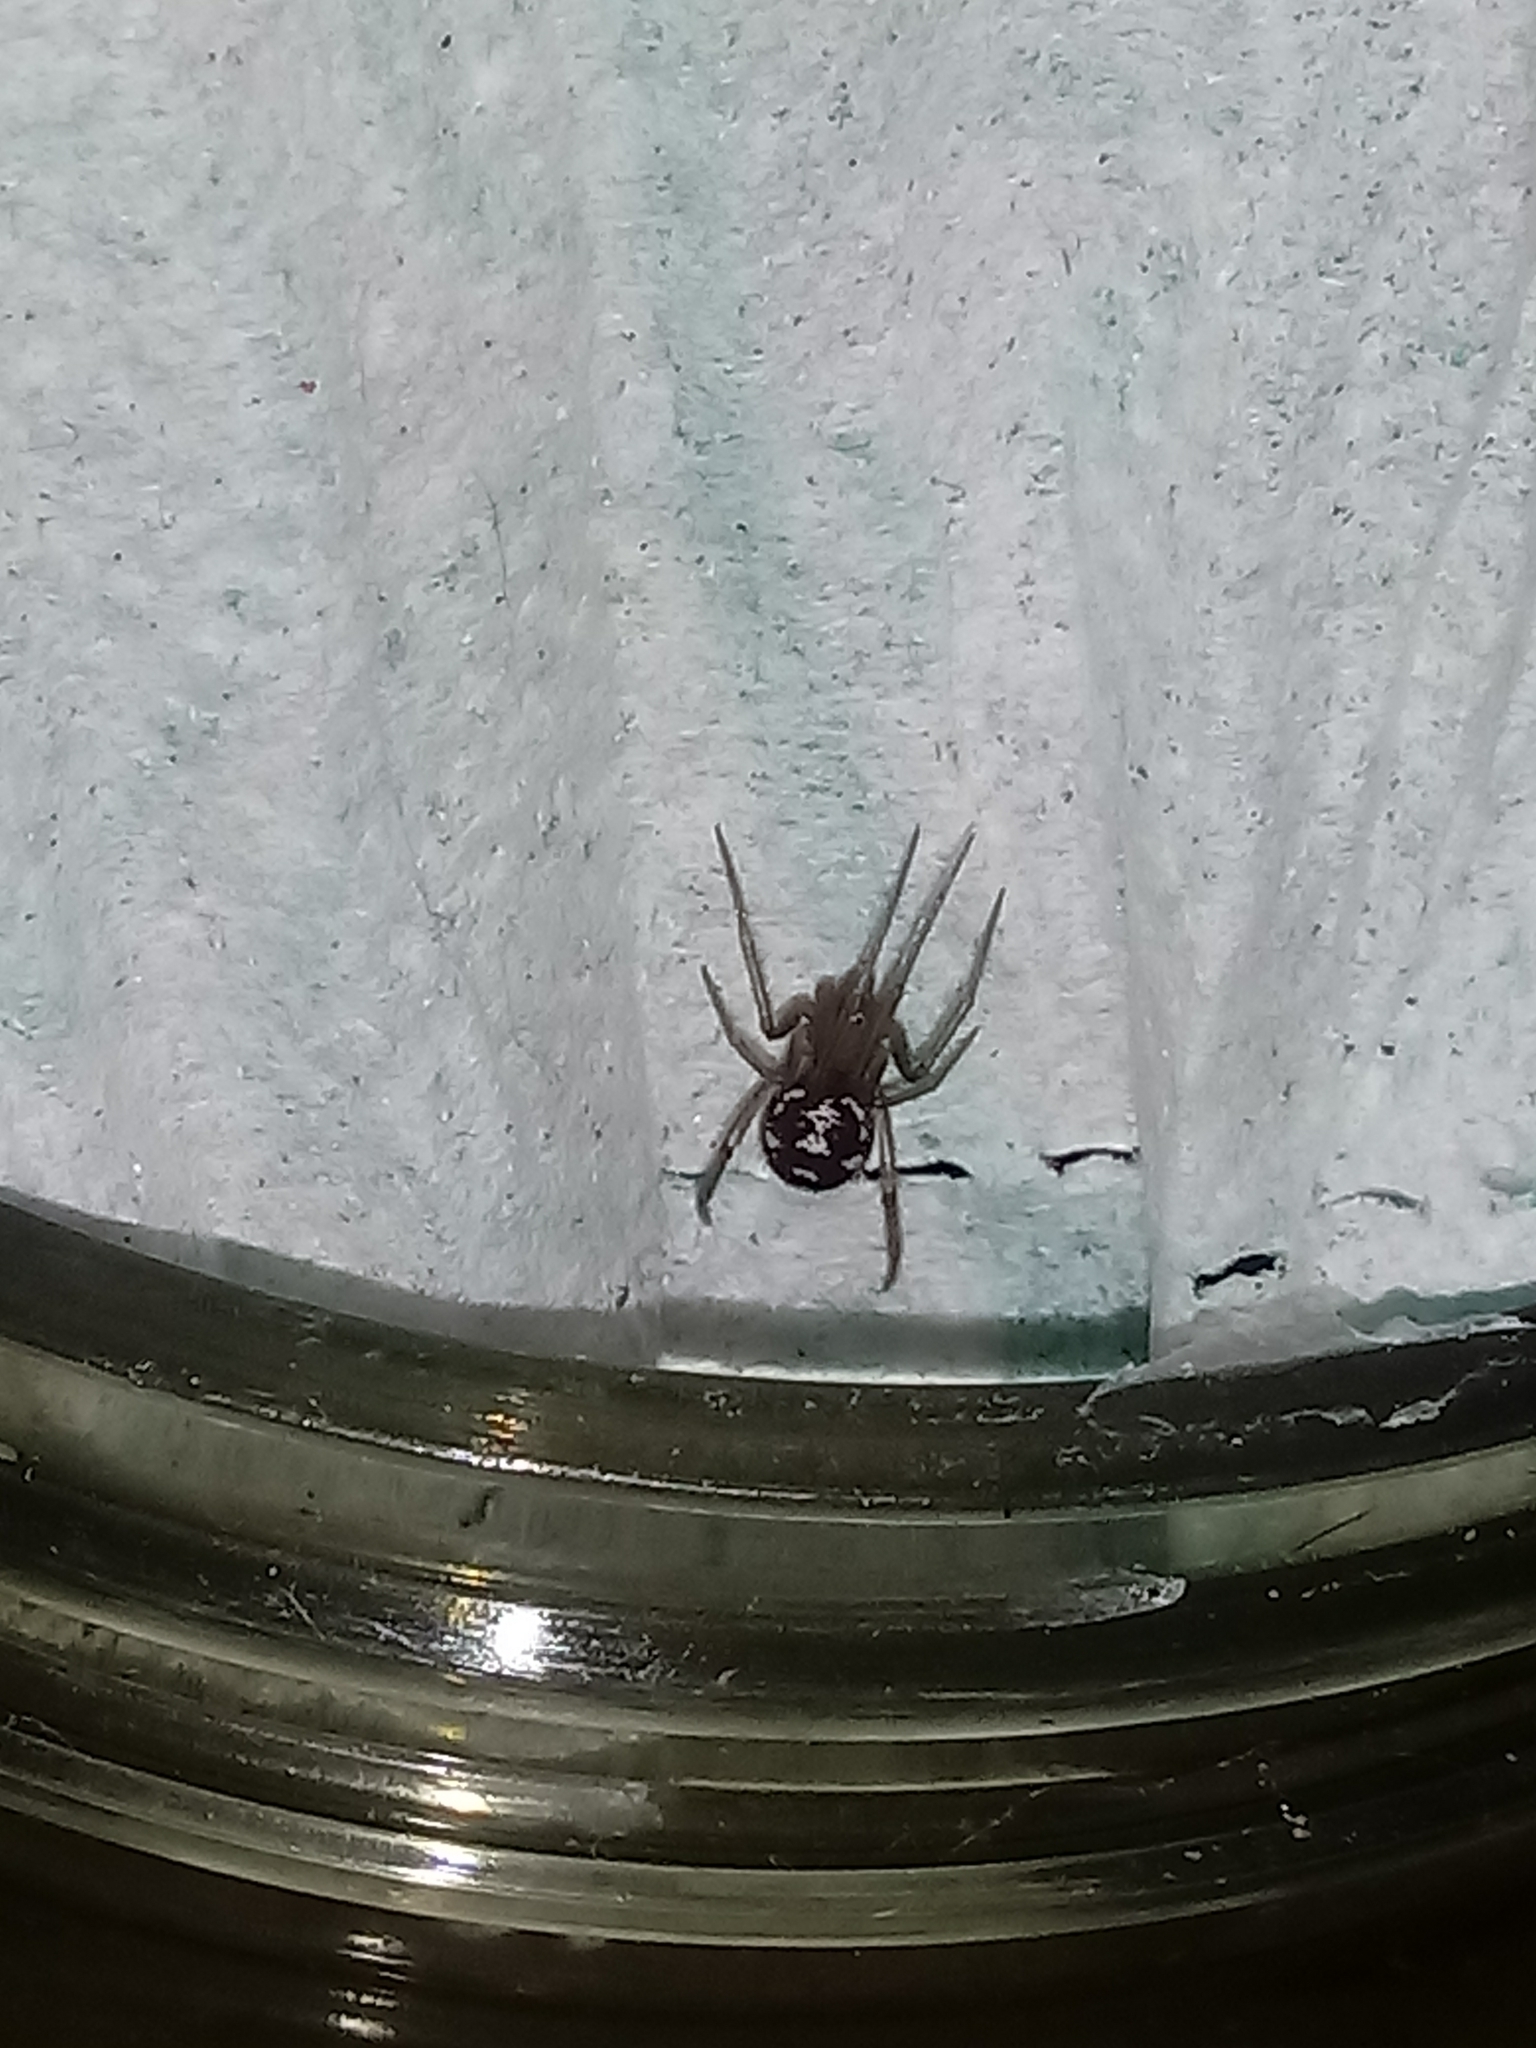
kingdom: Animalia
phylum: Arthropoda
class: Arachnida
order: Araneae
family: Theridiidae
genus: Steatoda
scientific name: Steatoda grossa
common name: False black widow
